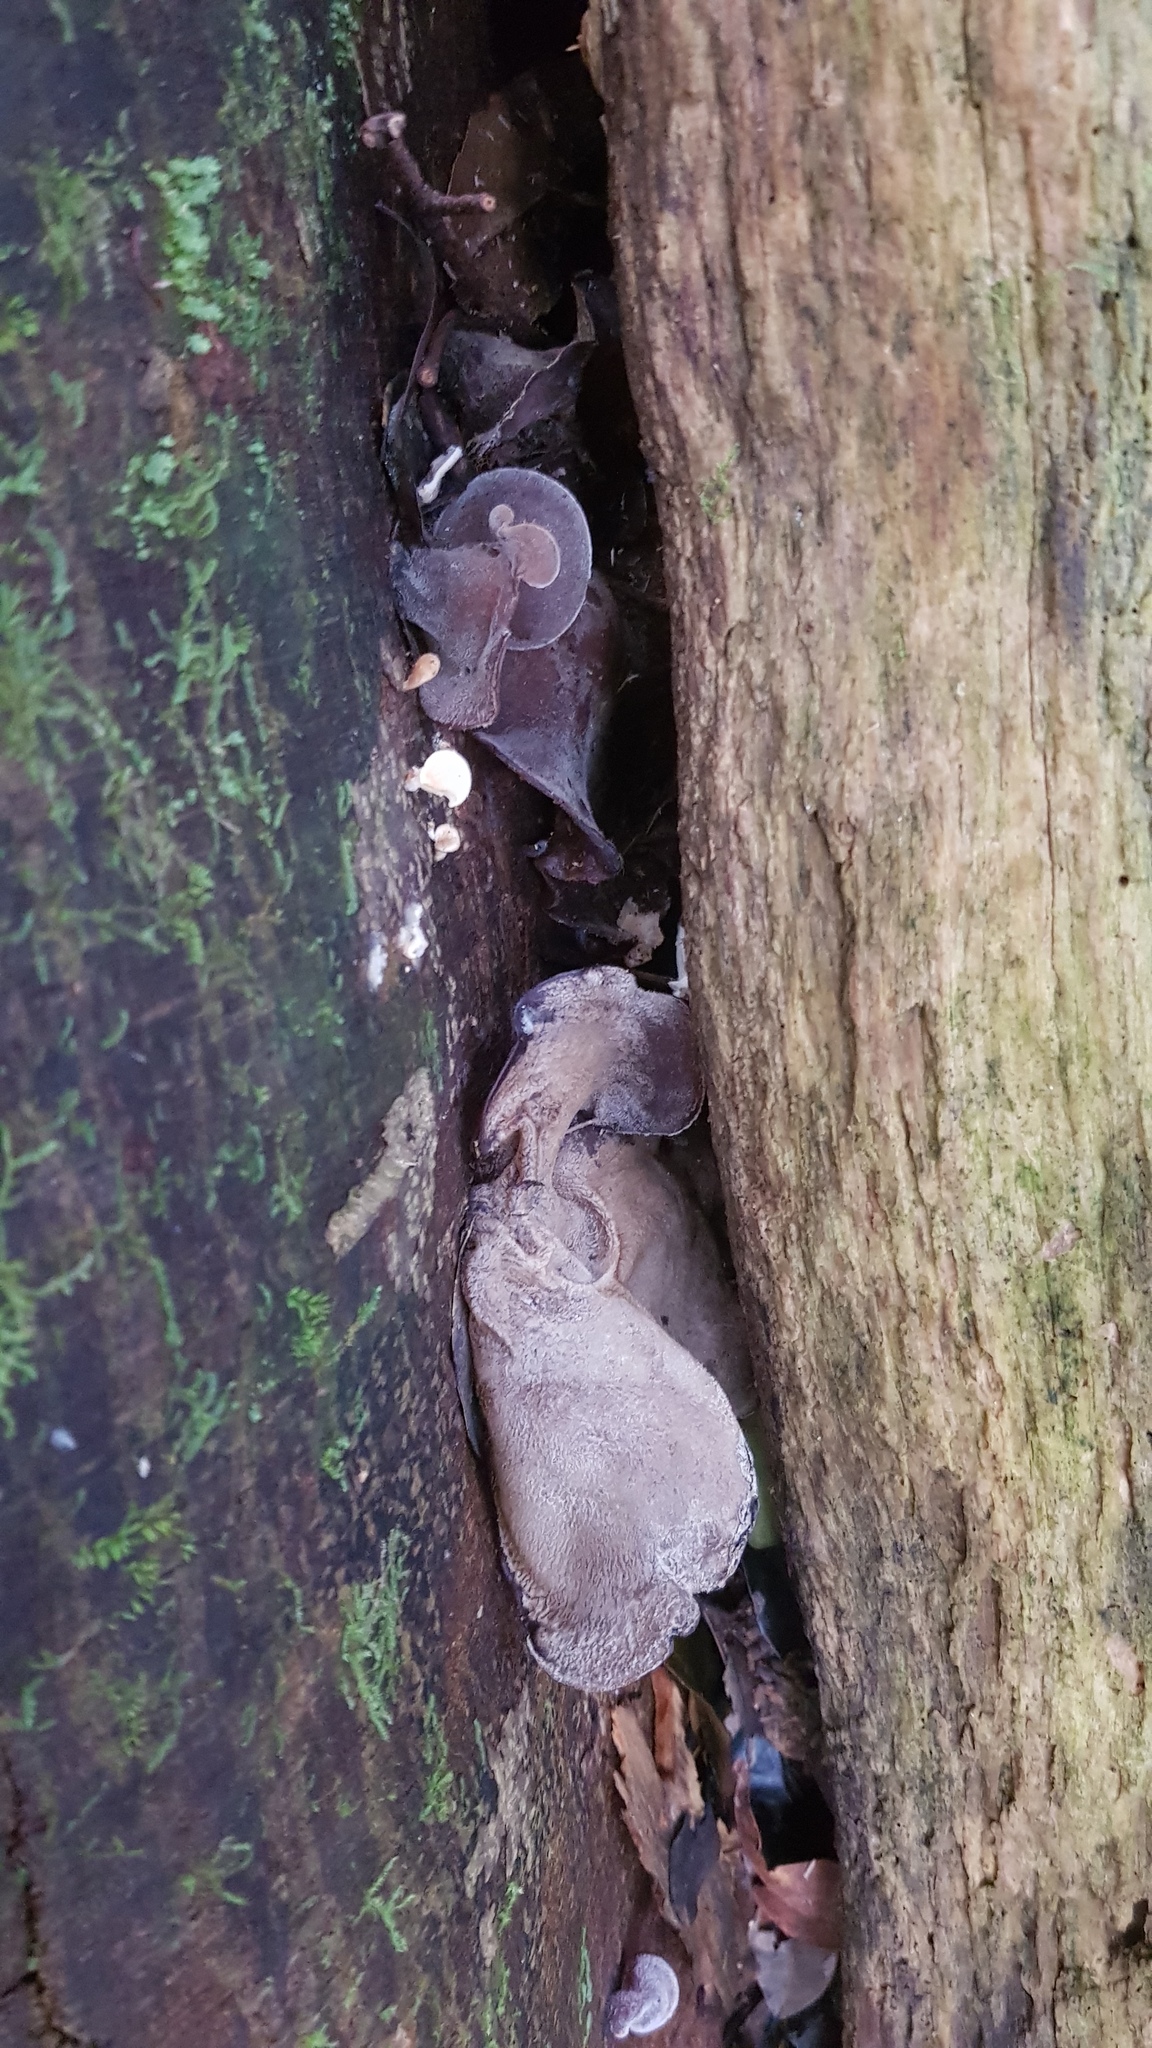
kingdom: Fungi
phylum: Basidiomycota
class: Agaricomycetes
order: Auriculariales
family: Auriculariaceae
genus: Auricularia
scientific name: Auricularia cornea
